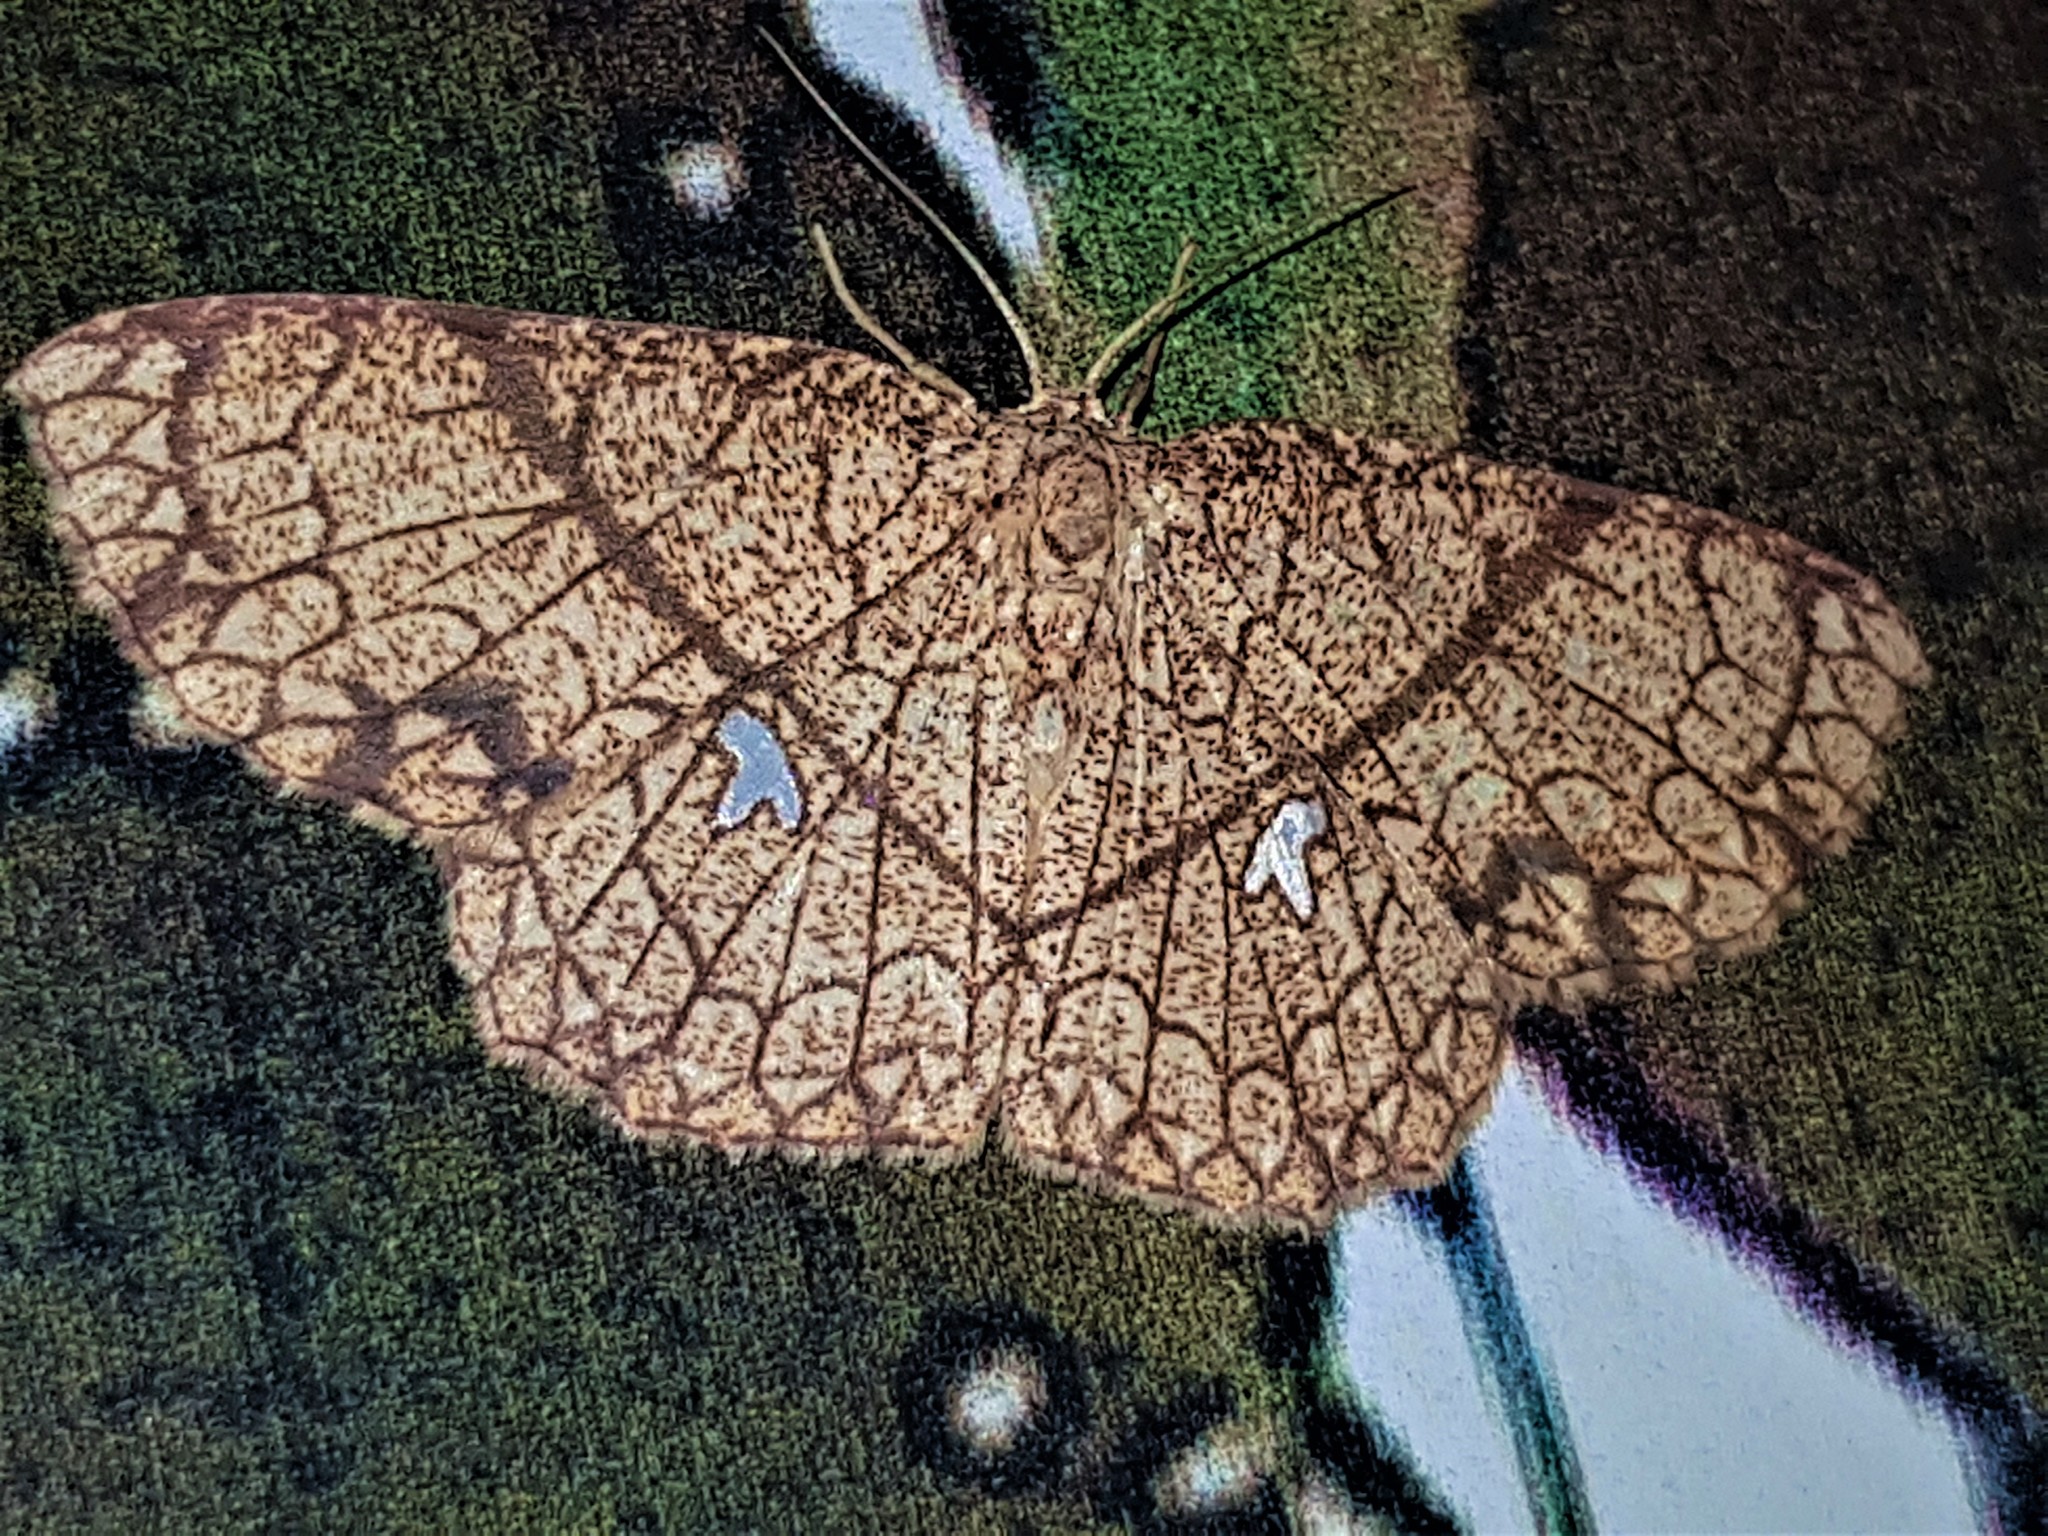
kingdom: Animalia
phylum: Arthropoda
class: Insecta
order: Lepidoptera
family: Geometridae
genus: Cyclophora
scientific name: Cyclophora insigniata
